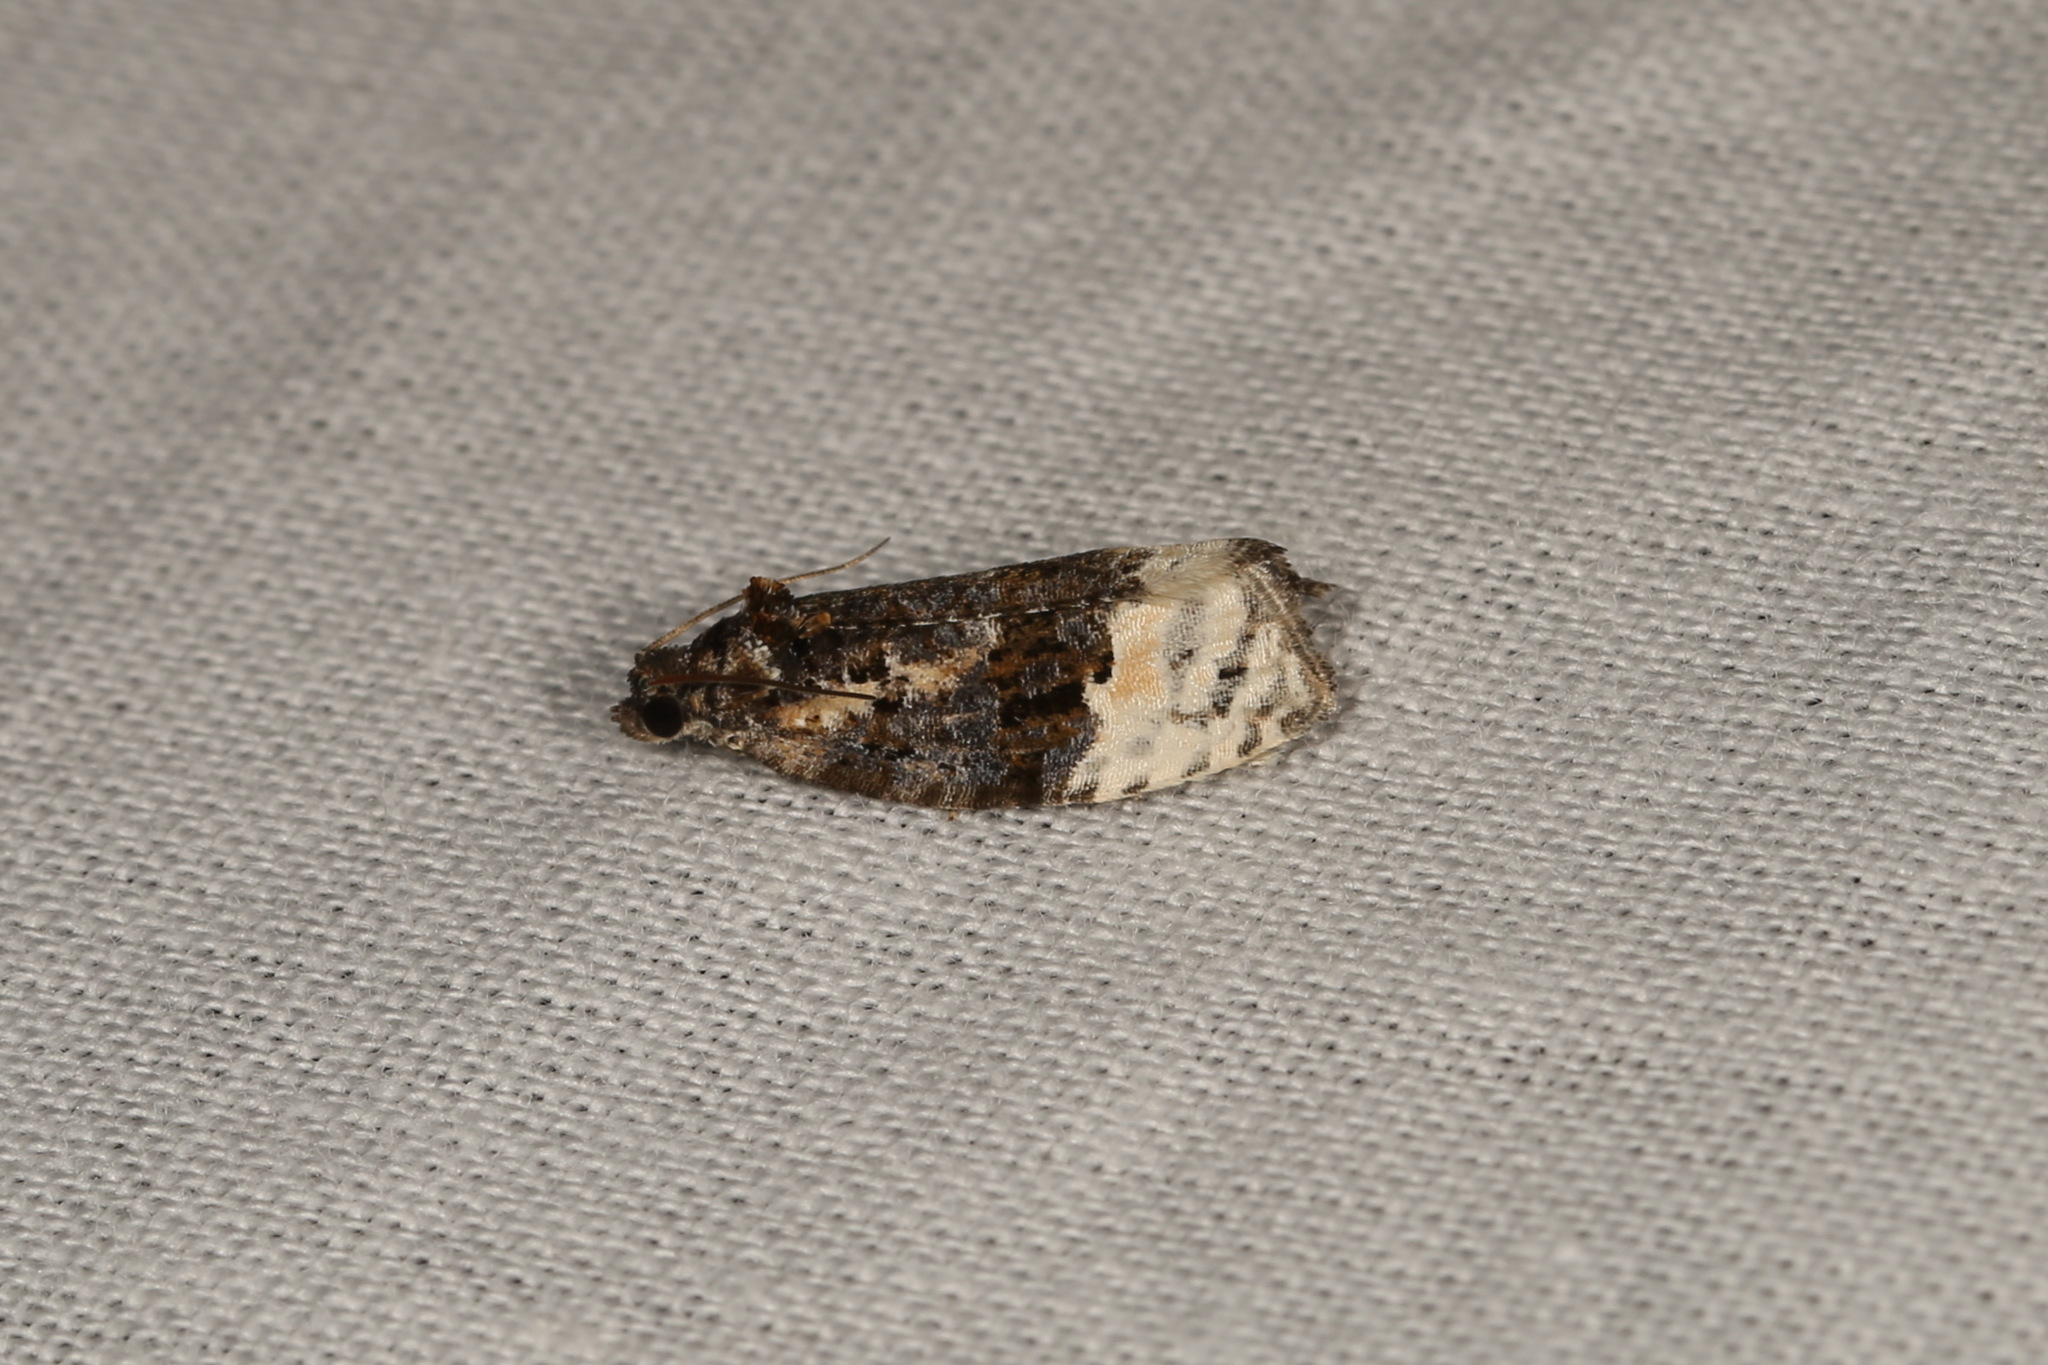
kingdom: Animalia
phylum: Arthropoda
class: Insecta
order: Lepidoptera
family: Tortricidae
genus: Apotomis
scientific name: Apotomis betuletana
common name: Birch marble
